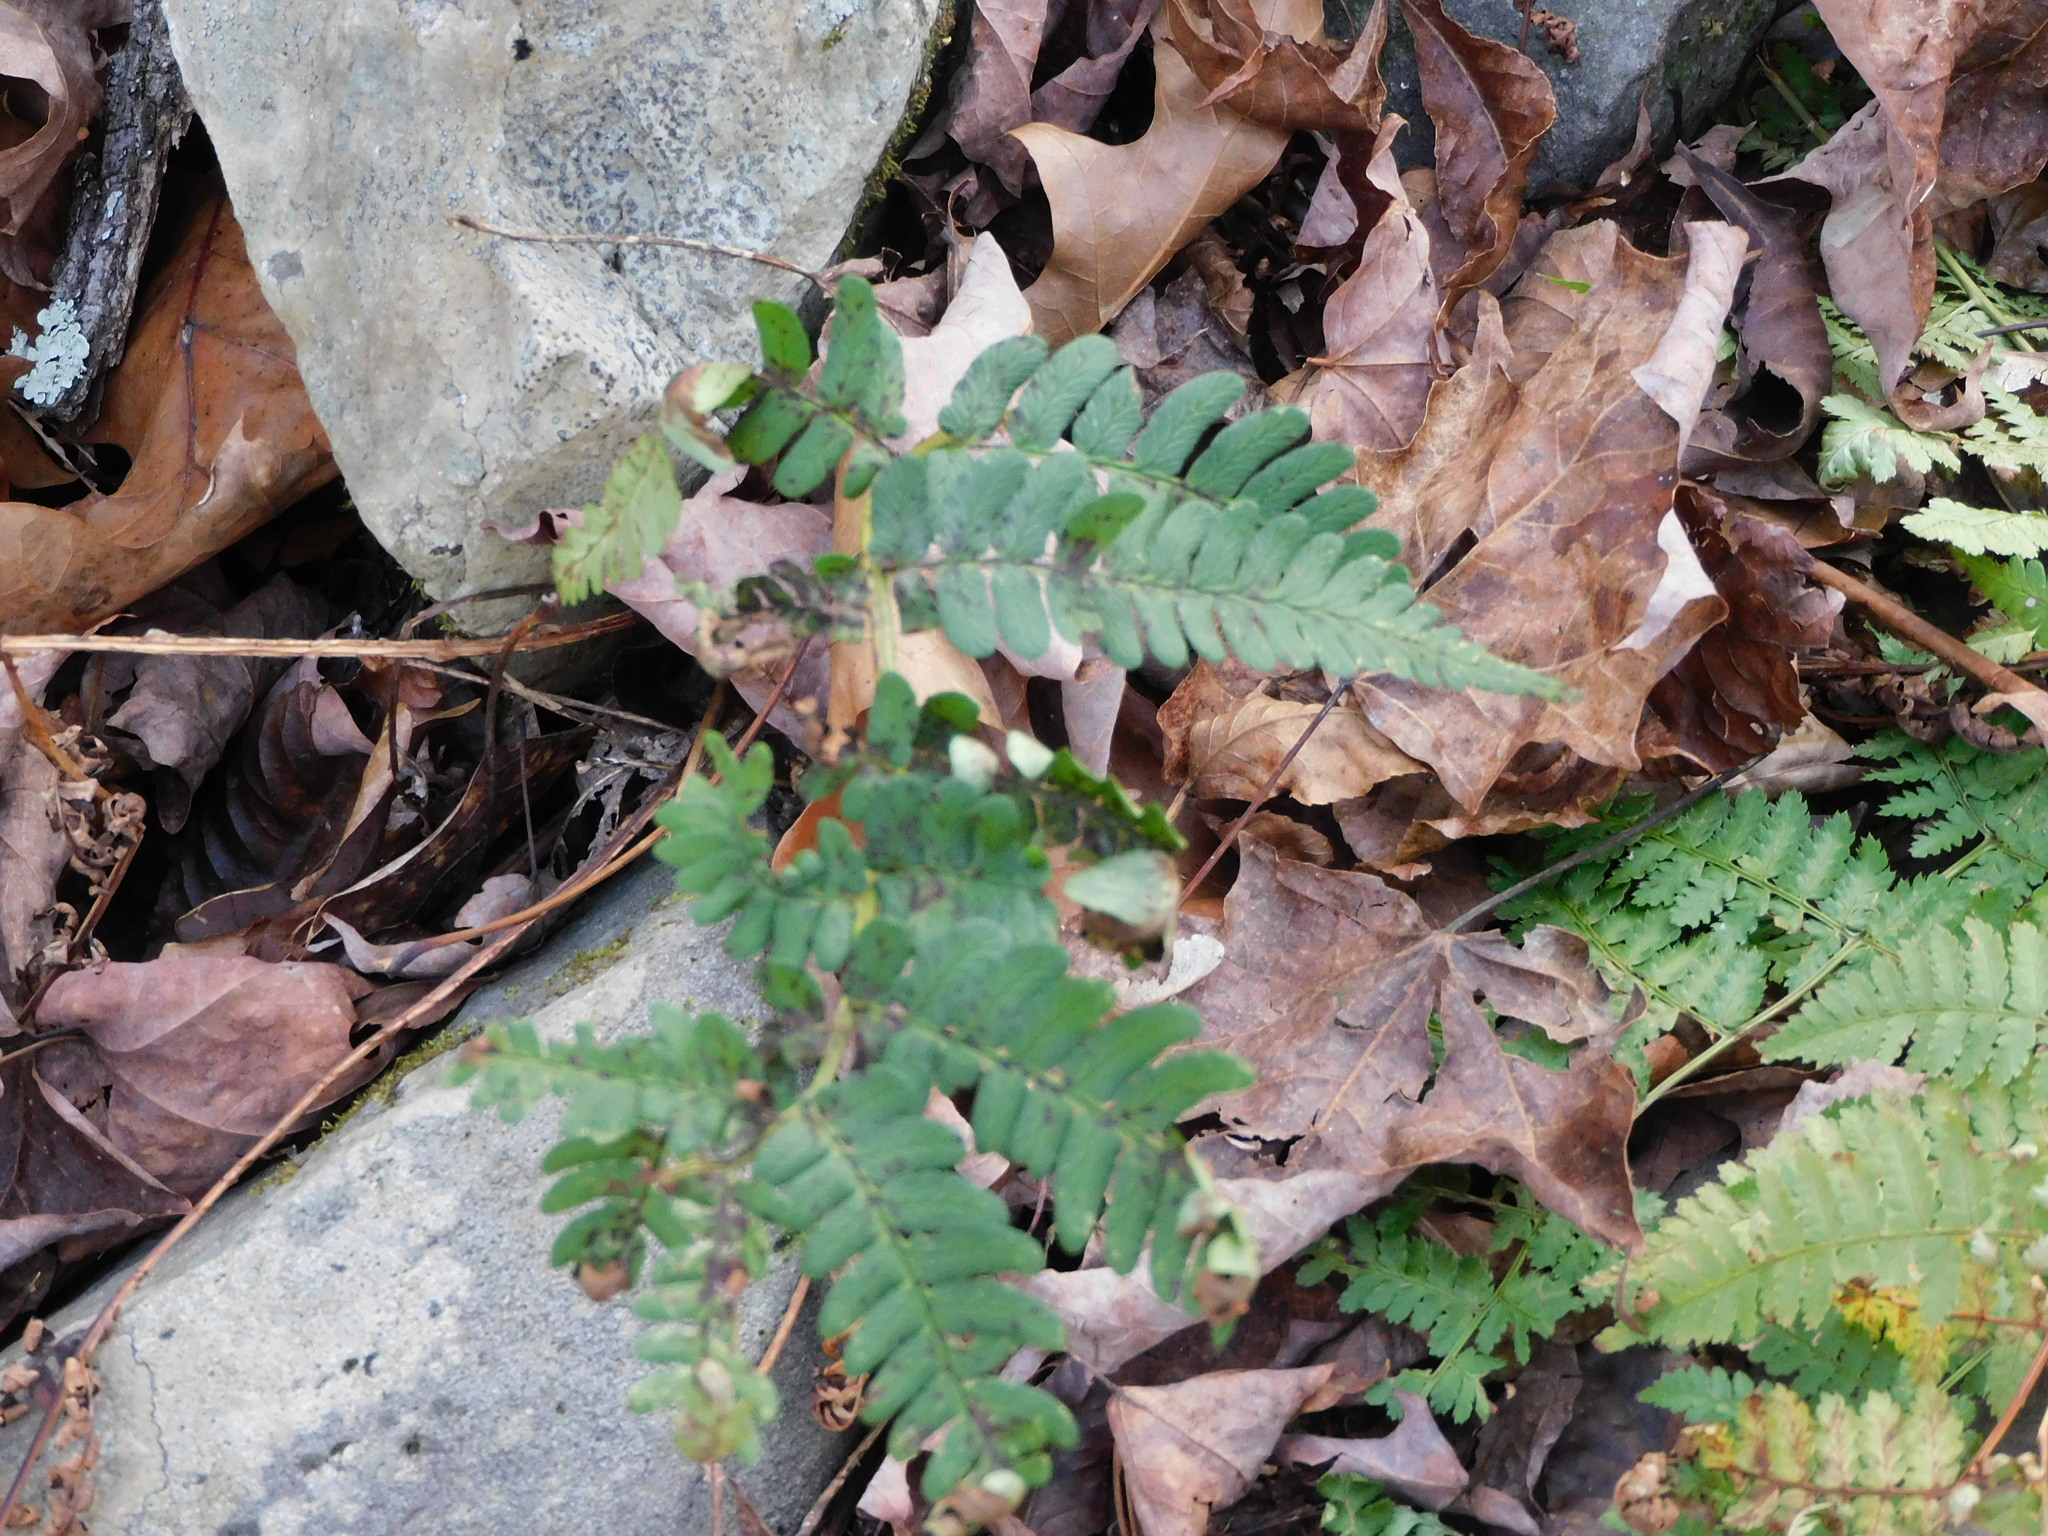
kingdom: Plantae
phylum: Tracheophyta
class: Polypodiopsida
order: Polypodiales
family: Dryopteridaceae
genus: Dryopteris
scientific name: Dryopteris marginalis
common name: Marginal wood fern
